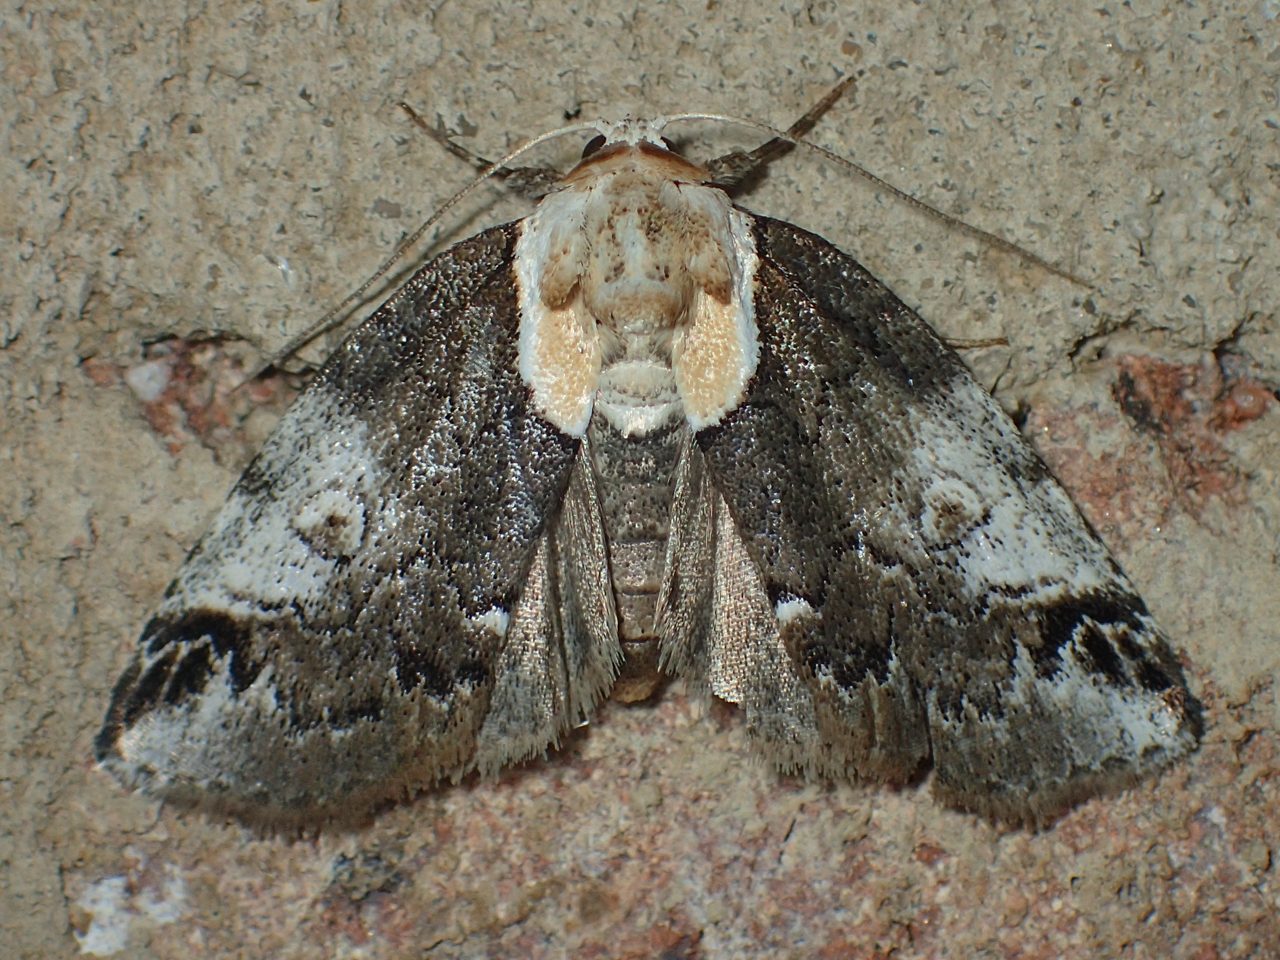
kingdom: Animalia
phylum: Arthropoda
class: Insecta
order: Lepidoptera
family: Nolidae
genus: Baileya
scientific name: Baileya ophthalmica
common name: Eyed baileya moth
